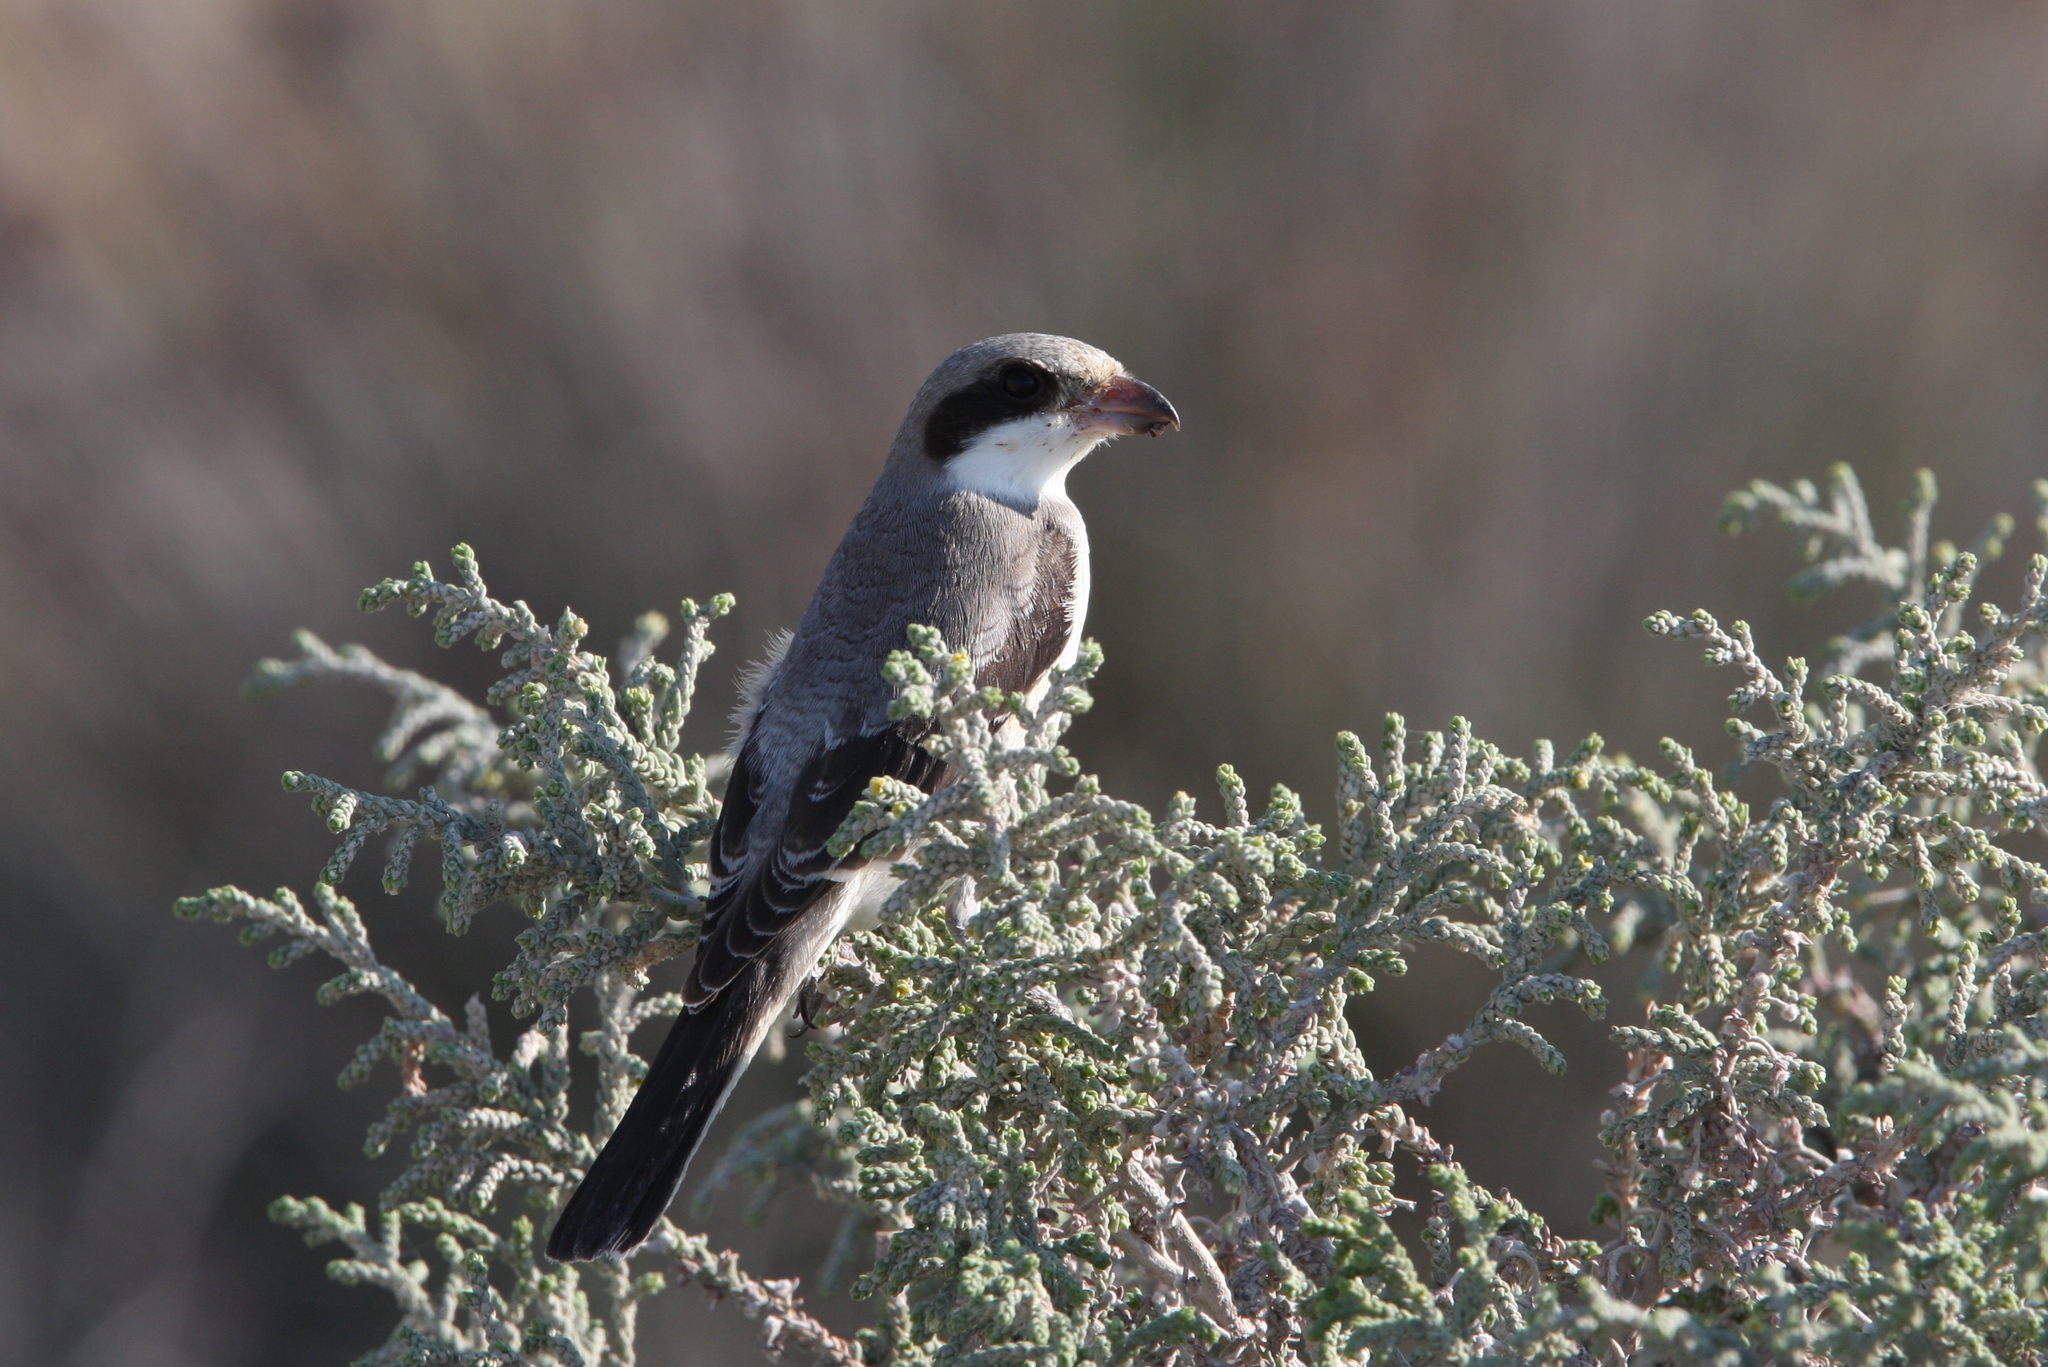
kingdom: Animalia
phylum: Chordata
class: Aves
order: Passeriformes
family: Laniidae
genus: Lanius
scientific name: Lanius minor
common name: Lesser grey shrike
